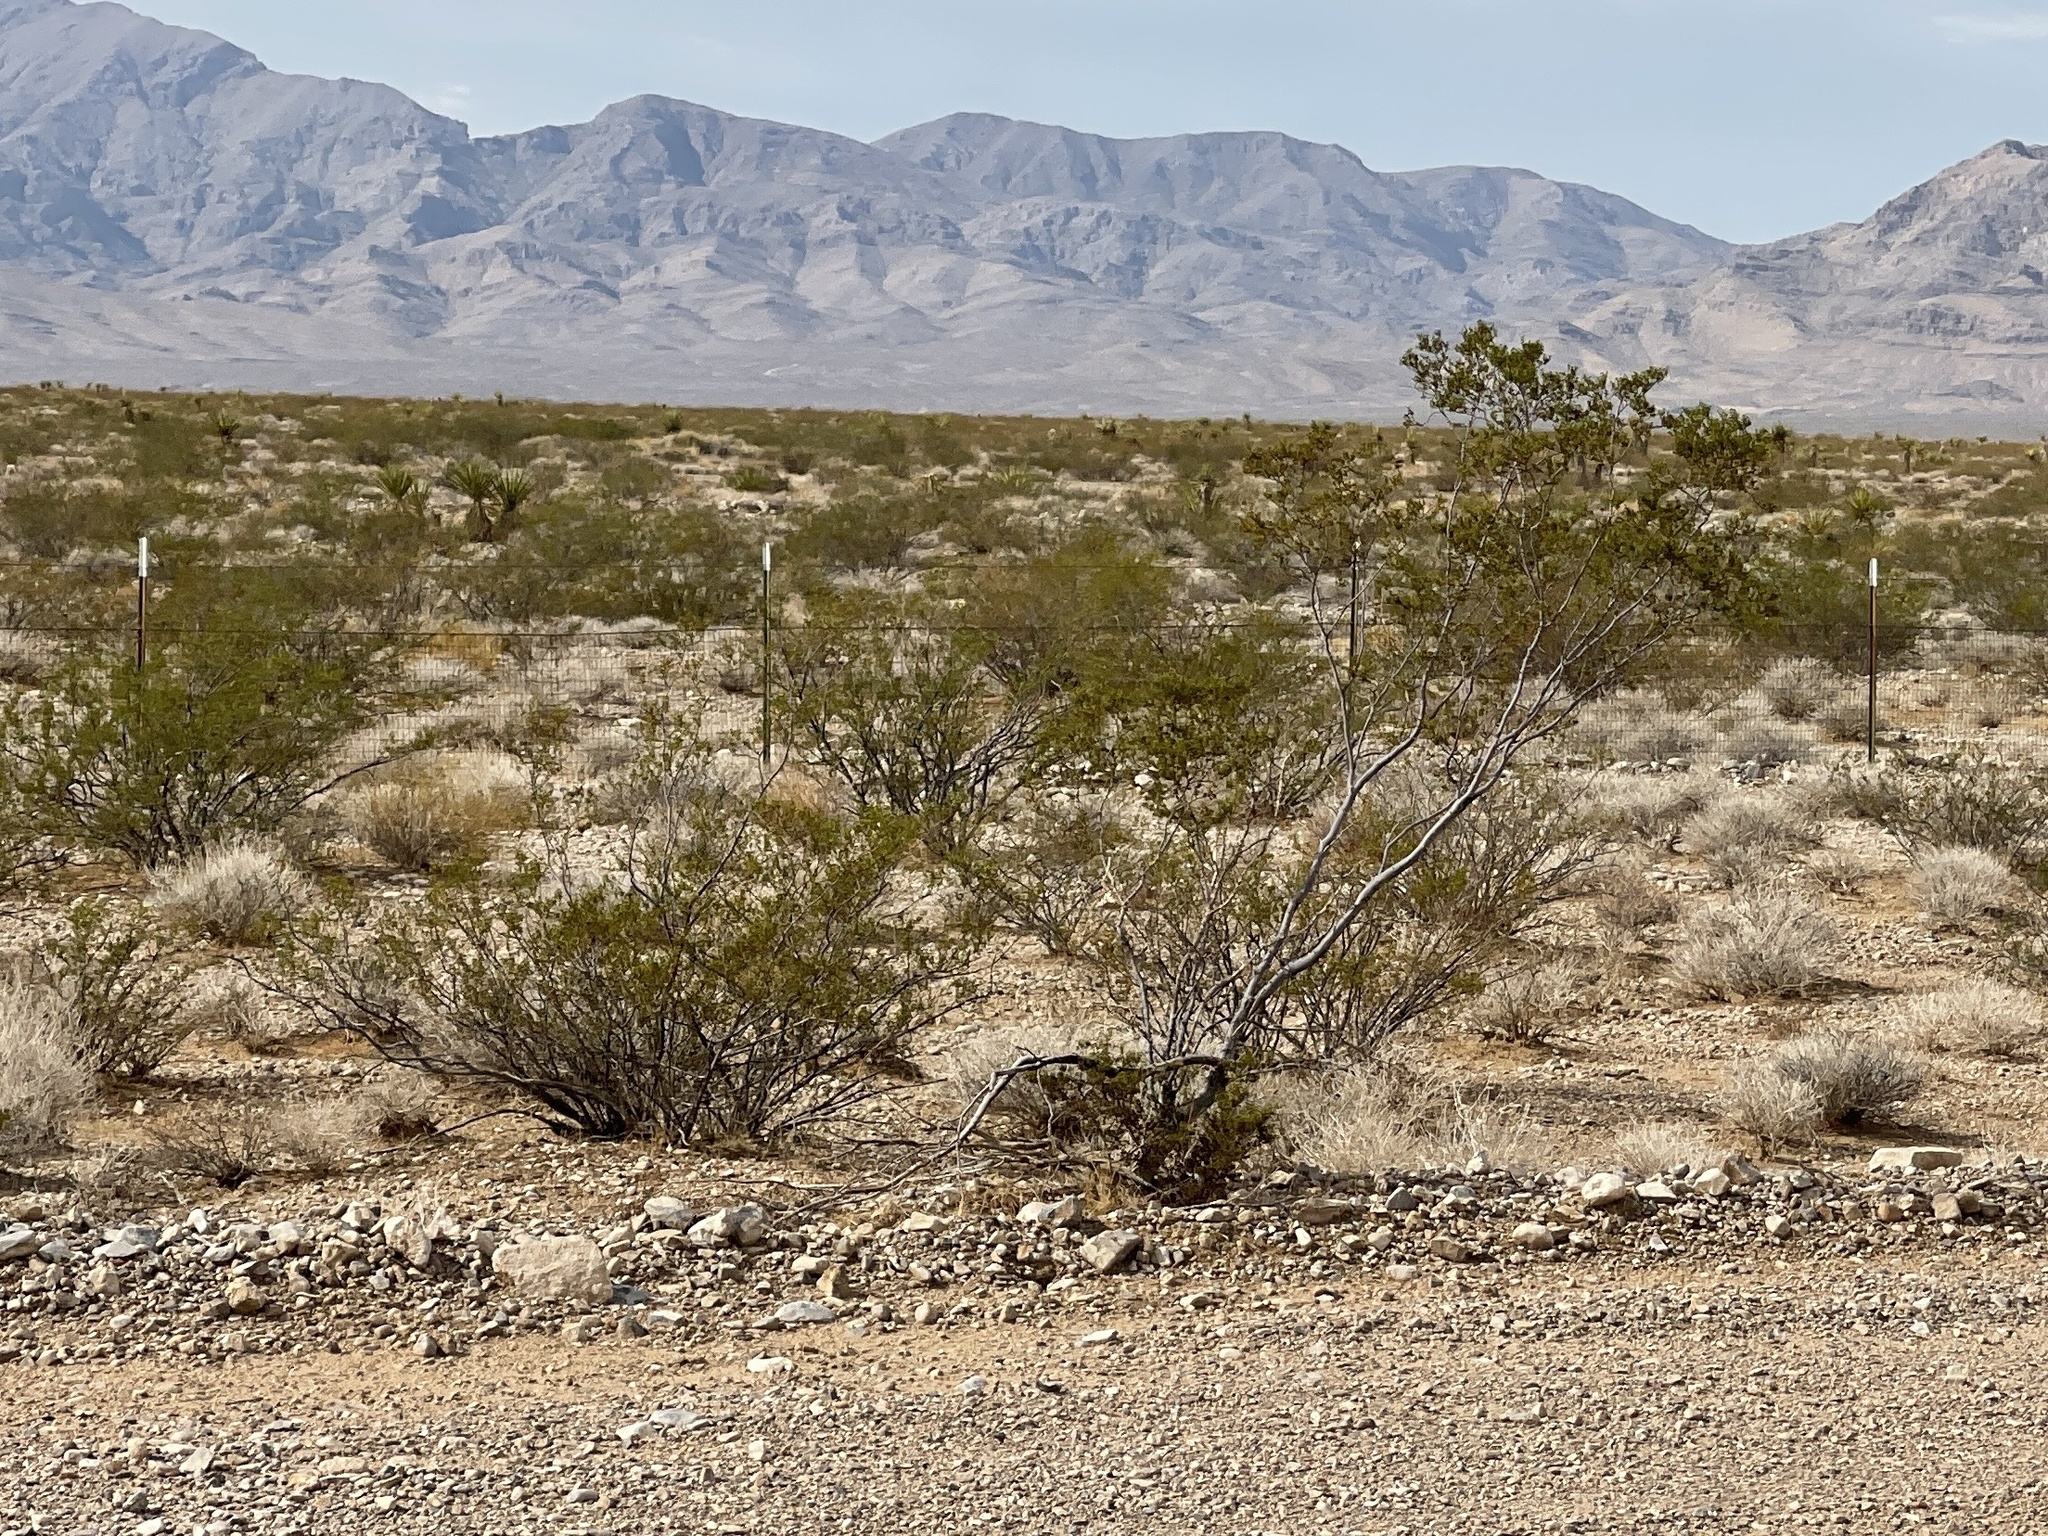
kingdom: Plantae
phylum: Tracheophyta
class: Magnoliopsida
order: Zygophyllales
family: Zygophyllaceae
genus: Larrea
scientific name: Larrea tridentata
